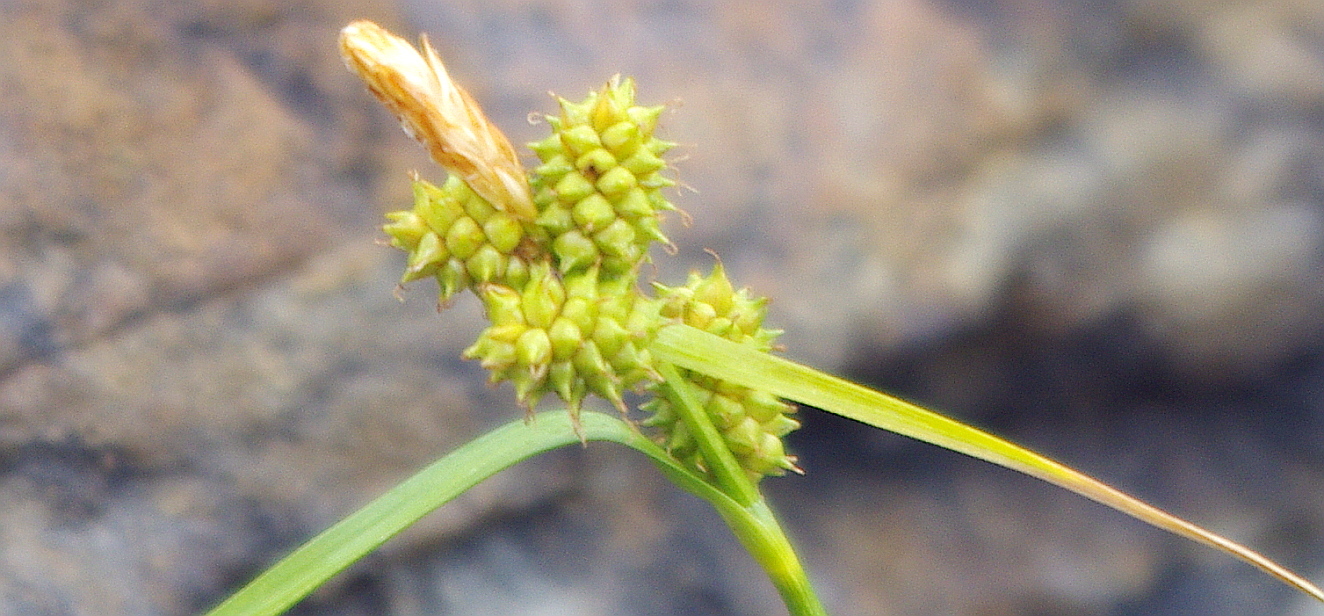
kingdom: Plantae
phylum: Tracheophyta
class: Liliopsida
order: Poales
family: Cyperaceae
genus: Carex
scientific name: Carex
